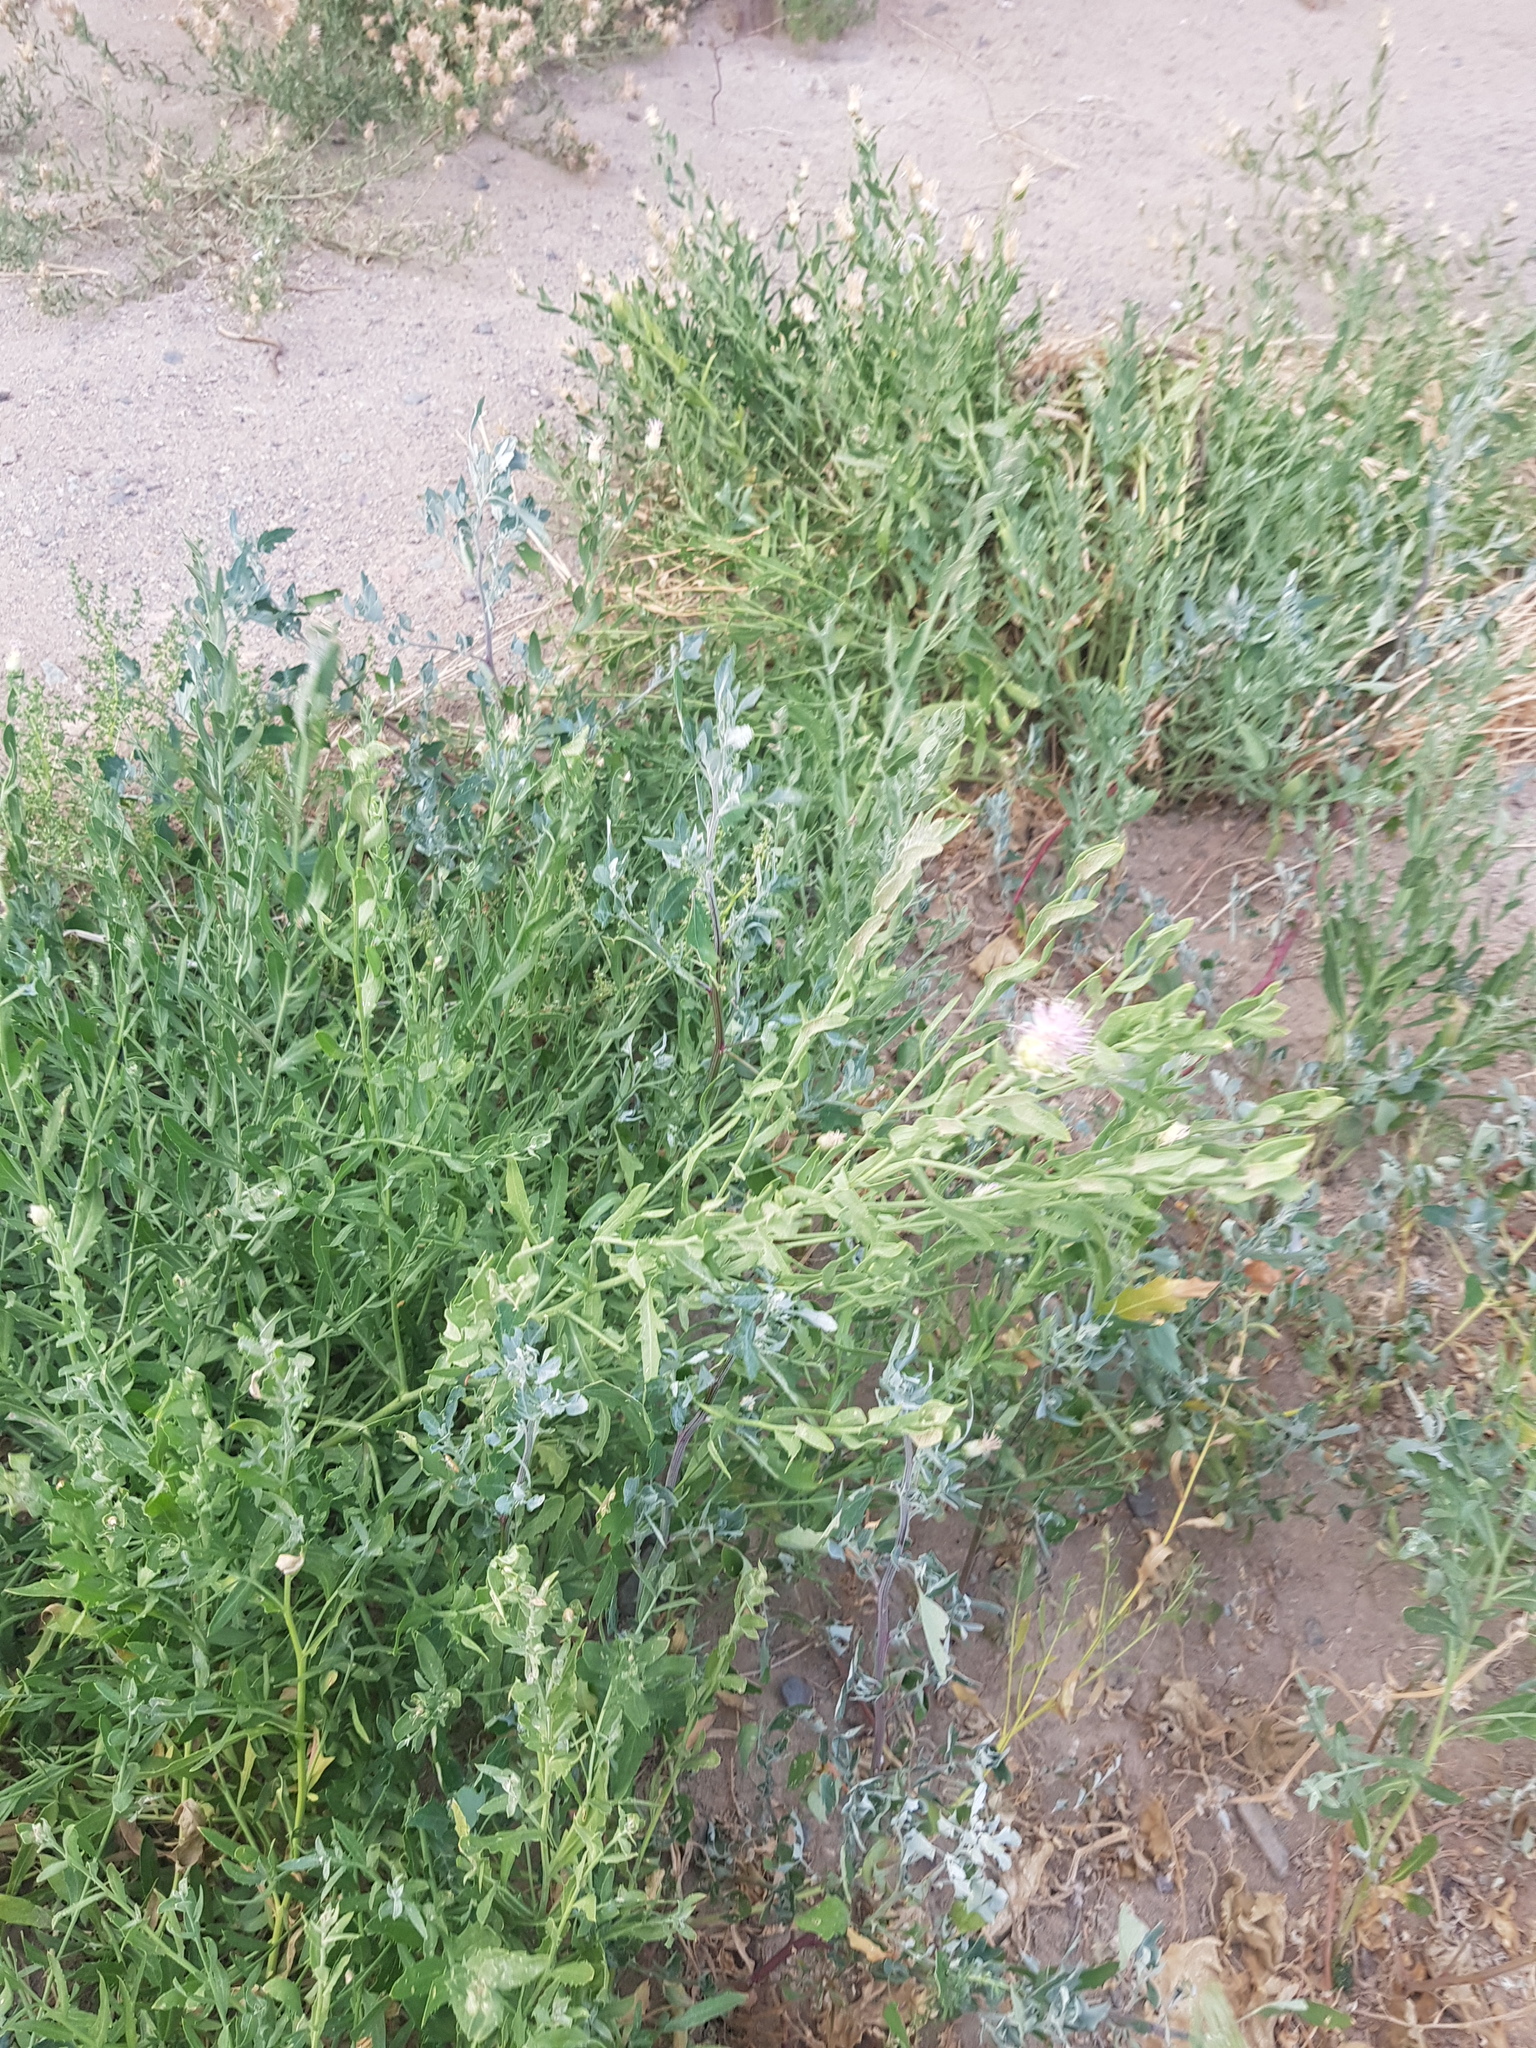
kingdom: Plantae
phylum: Tracheophyta
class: Magnoliopsida
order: Asterales
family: Asteraceae
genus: Leuzea
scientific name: Leuzea repens
